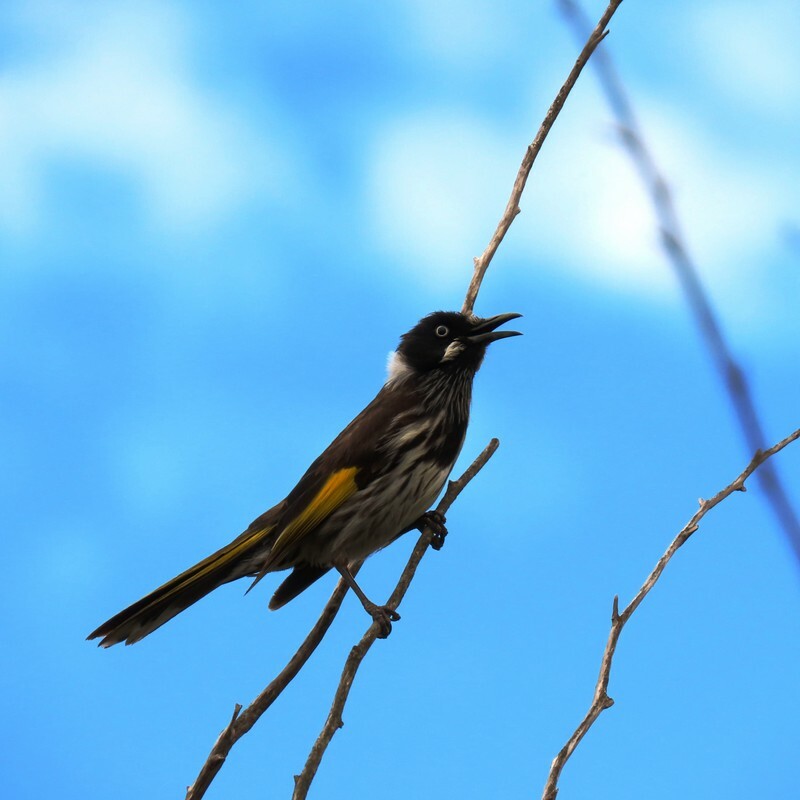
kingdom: Animalia
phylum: Chordata
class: Aves
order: Passeriformes
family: Meliphagidae
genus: Phylidonyris
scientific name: Phylidonyris novaehollandiae
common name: New holland honeyeater
